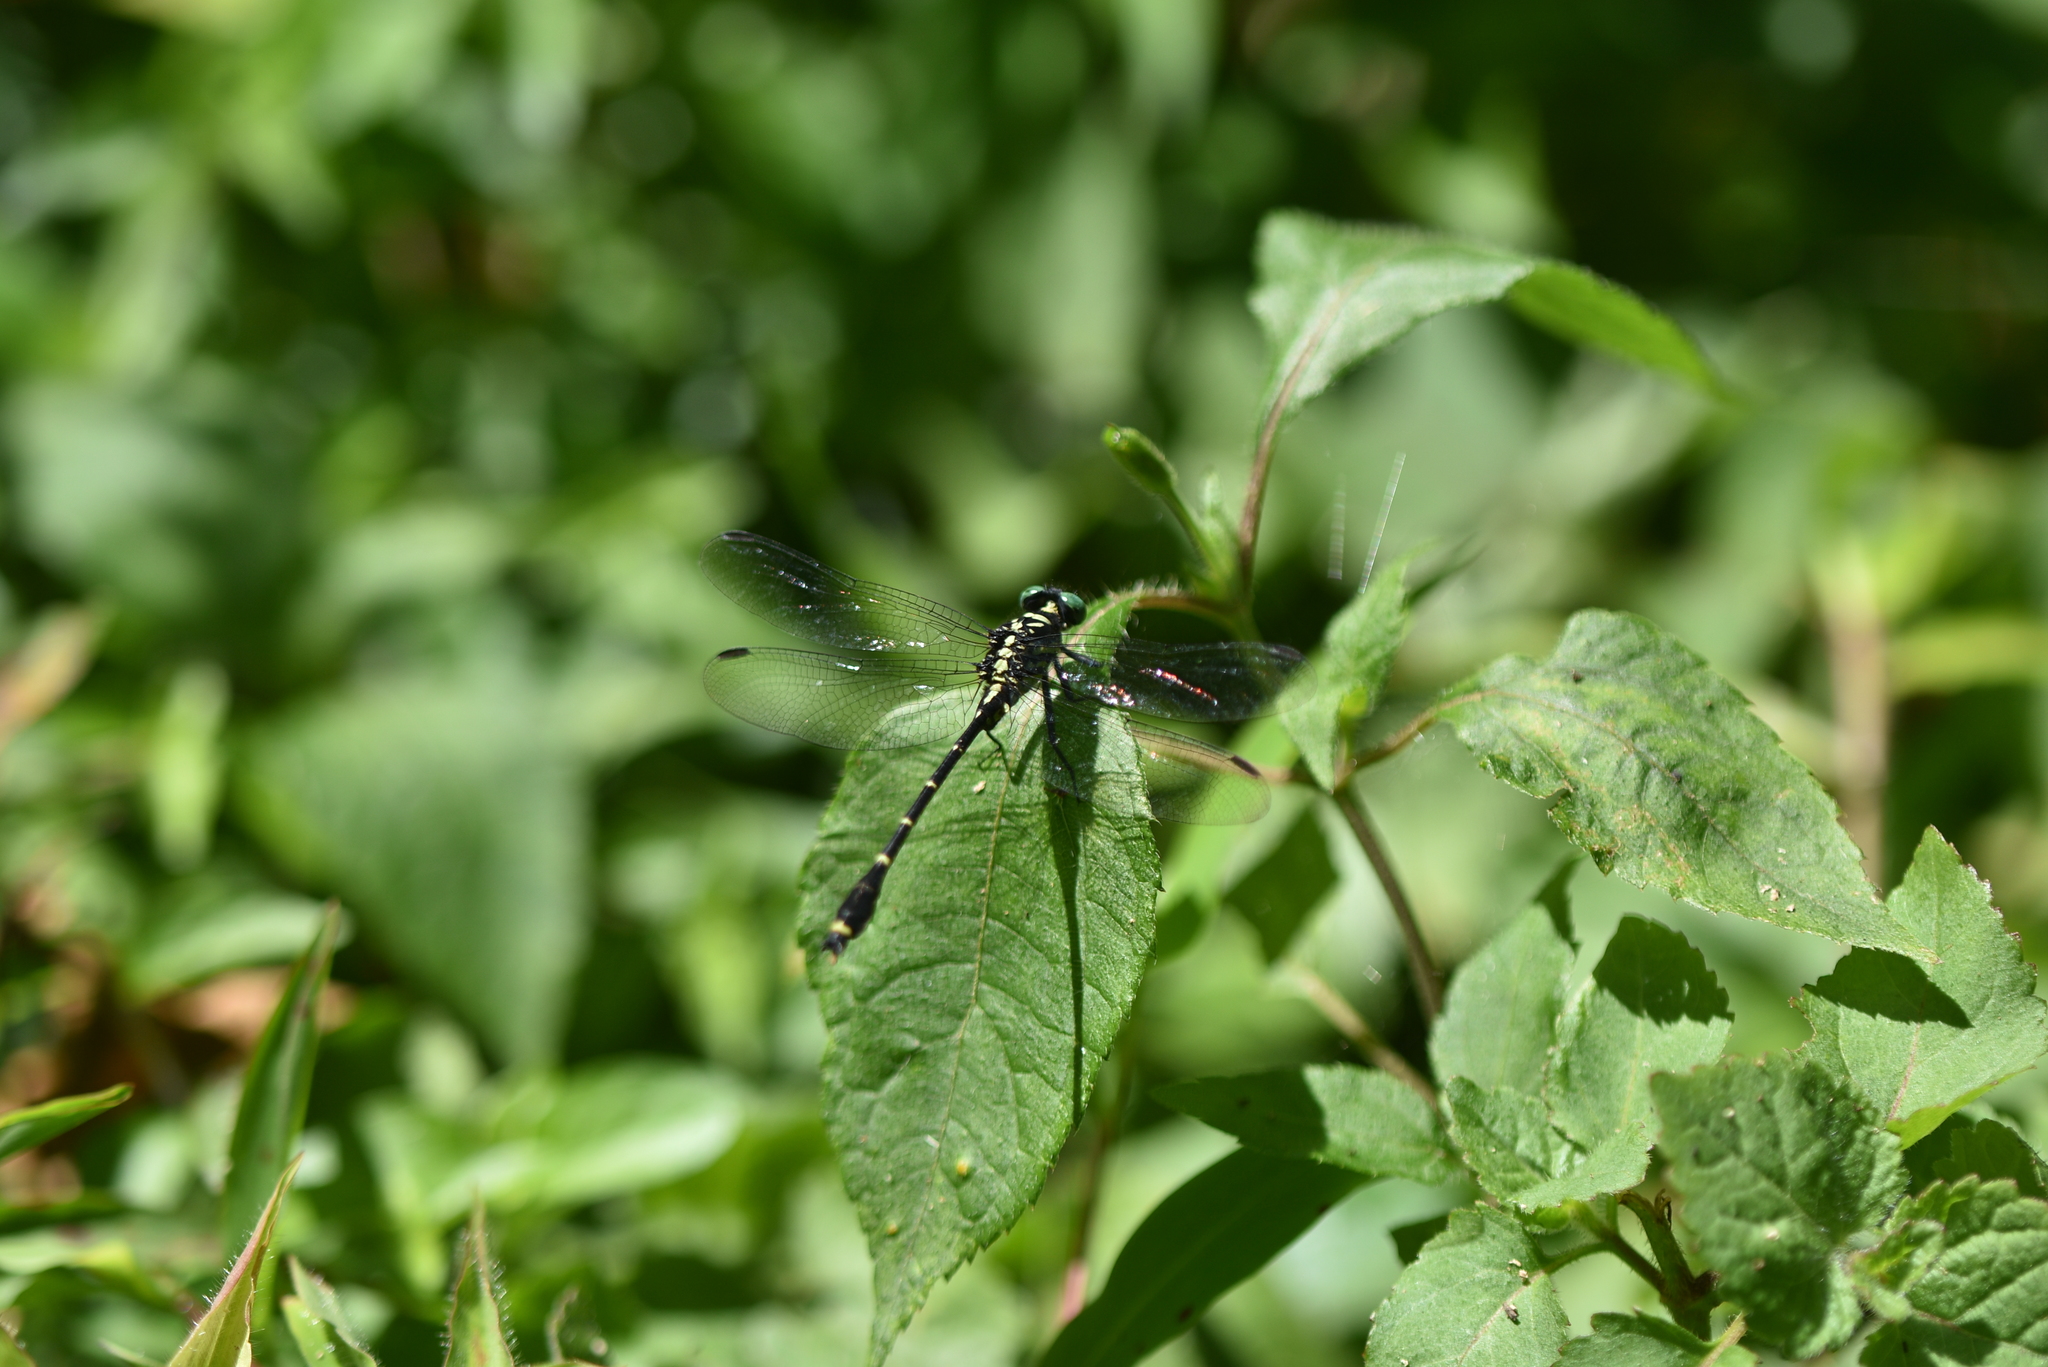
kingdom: Animalia
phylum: Arthropoda
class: Insecta
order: Odonata
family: Gomphidae
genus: Burmagomphus
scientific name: Burmagomphus laidlawi
